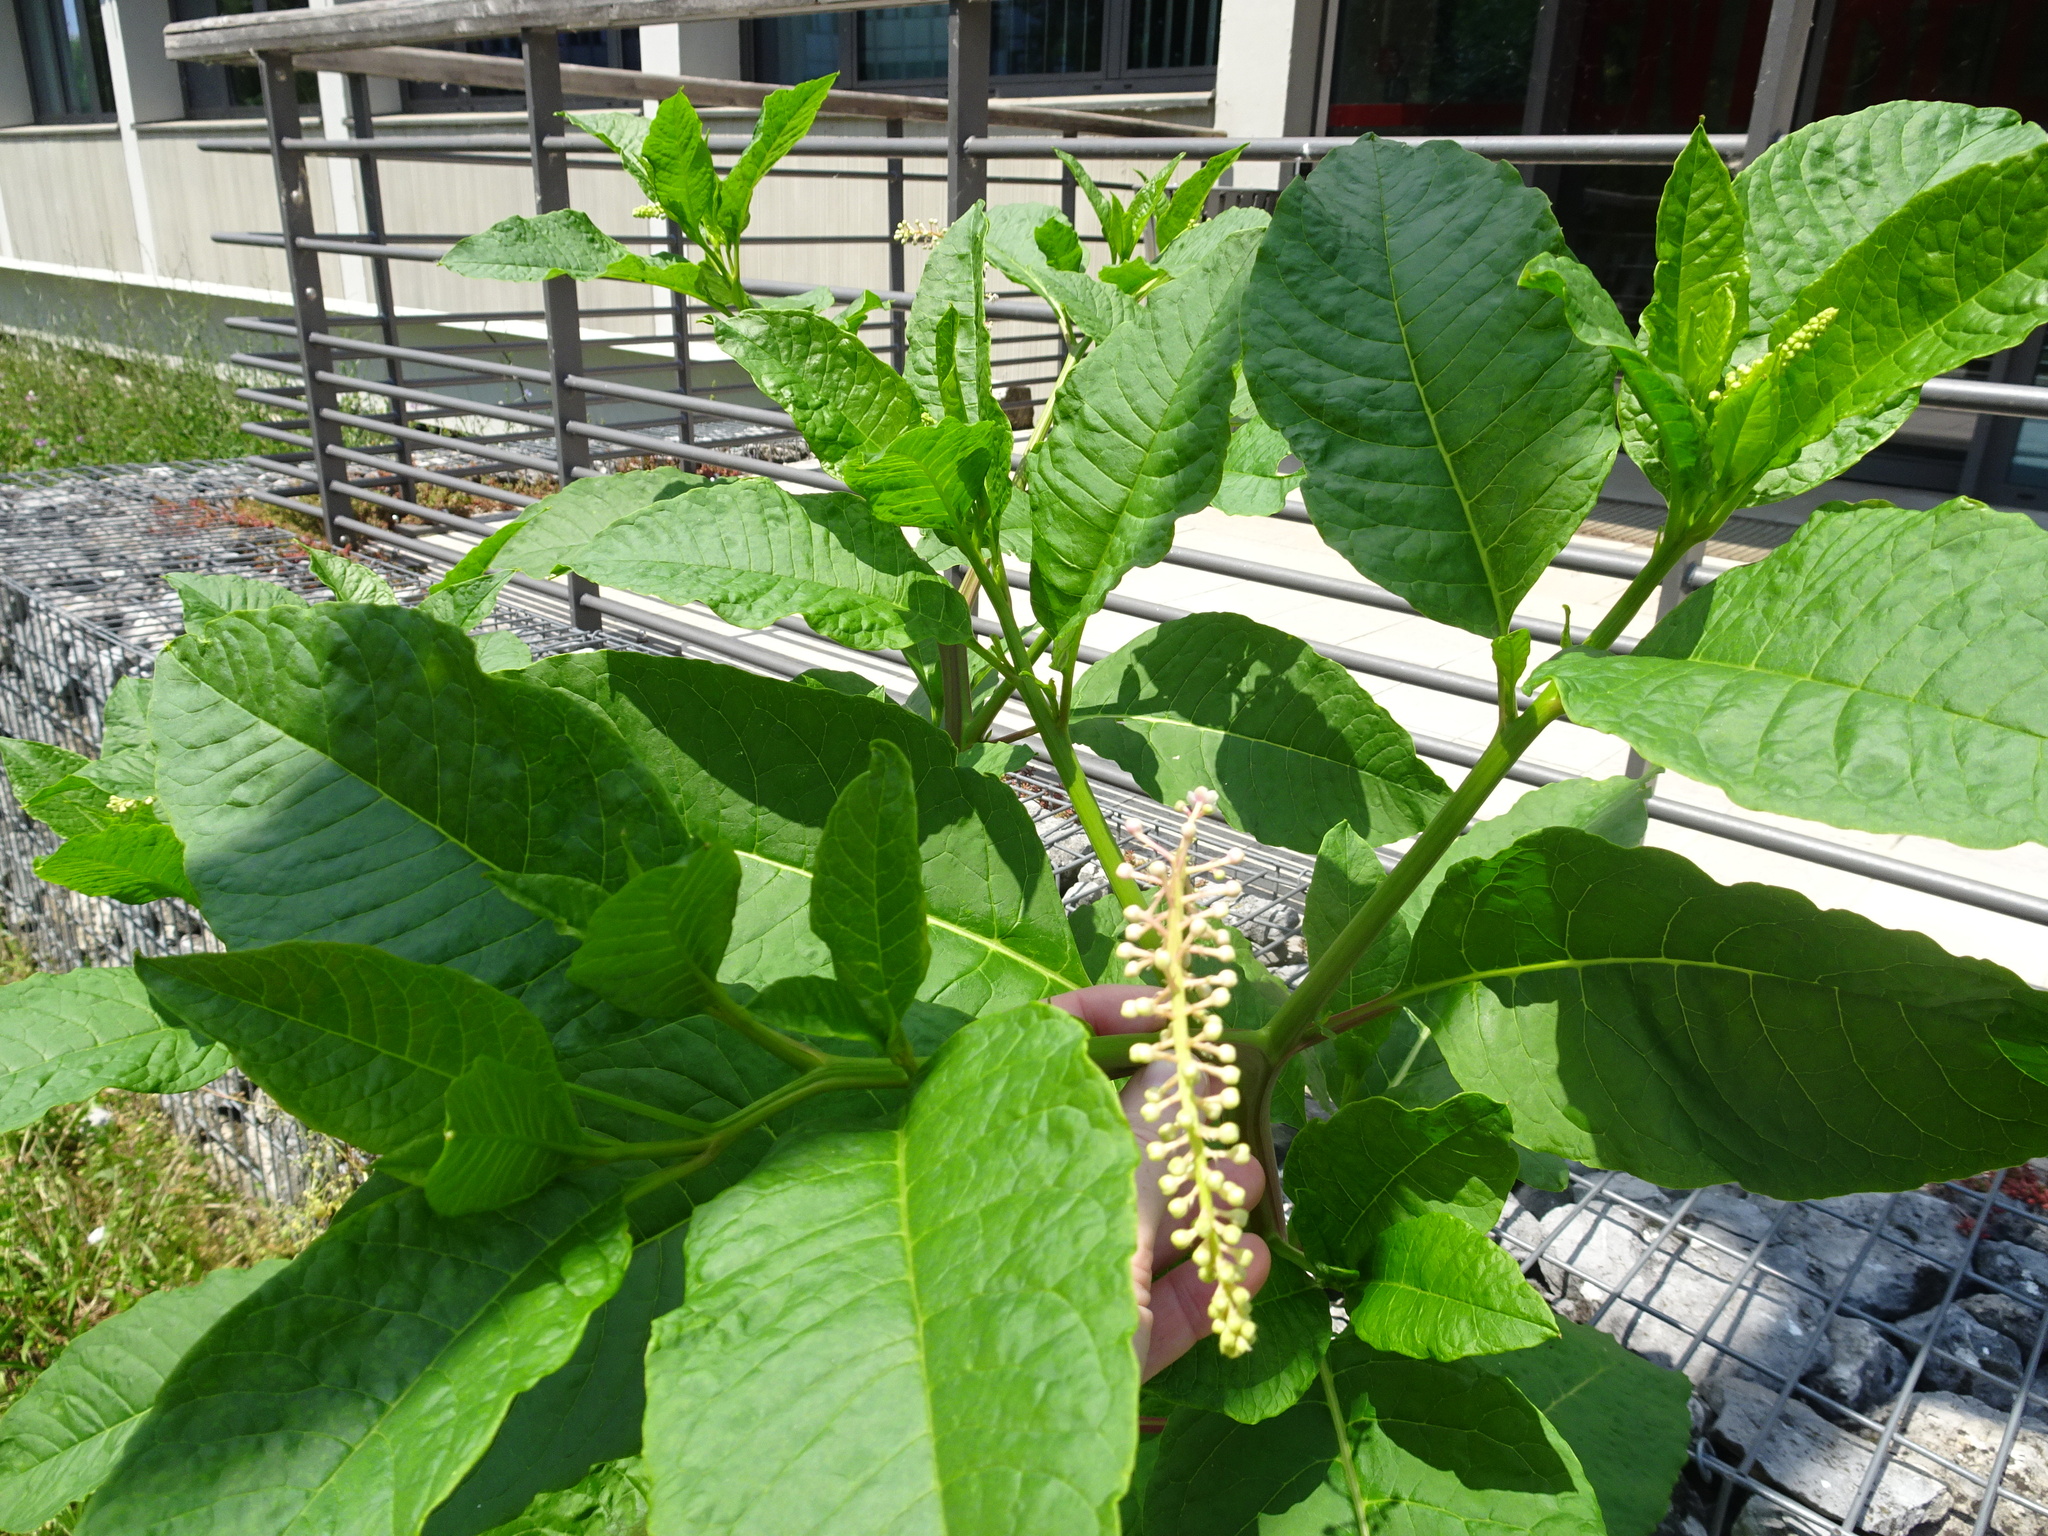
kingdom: Plantae
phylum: Tracheophyta
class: Magnoliopsida
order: Caryophyllales
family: Phytolaccaceae
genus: Phytolacca
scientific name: Phytolacca americana
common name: American pokeweed
